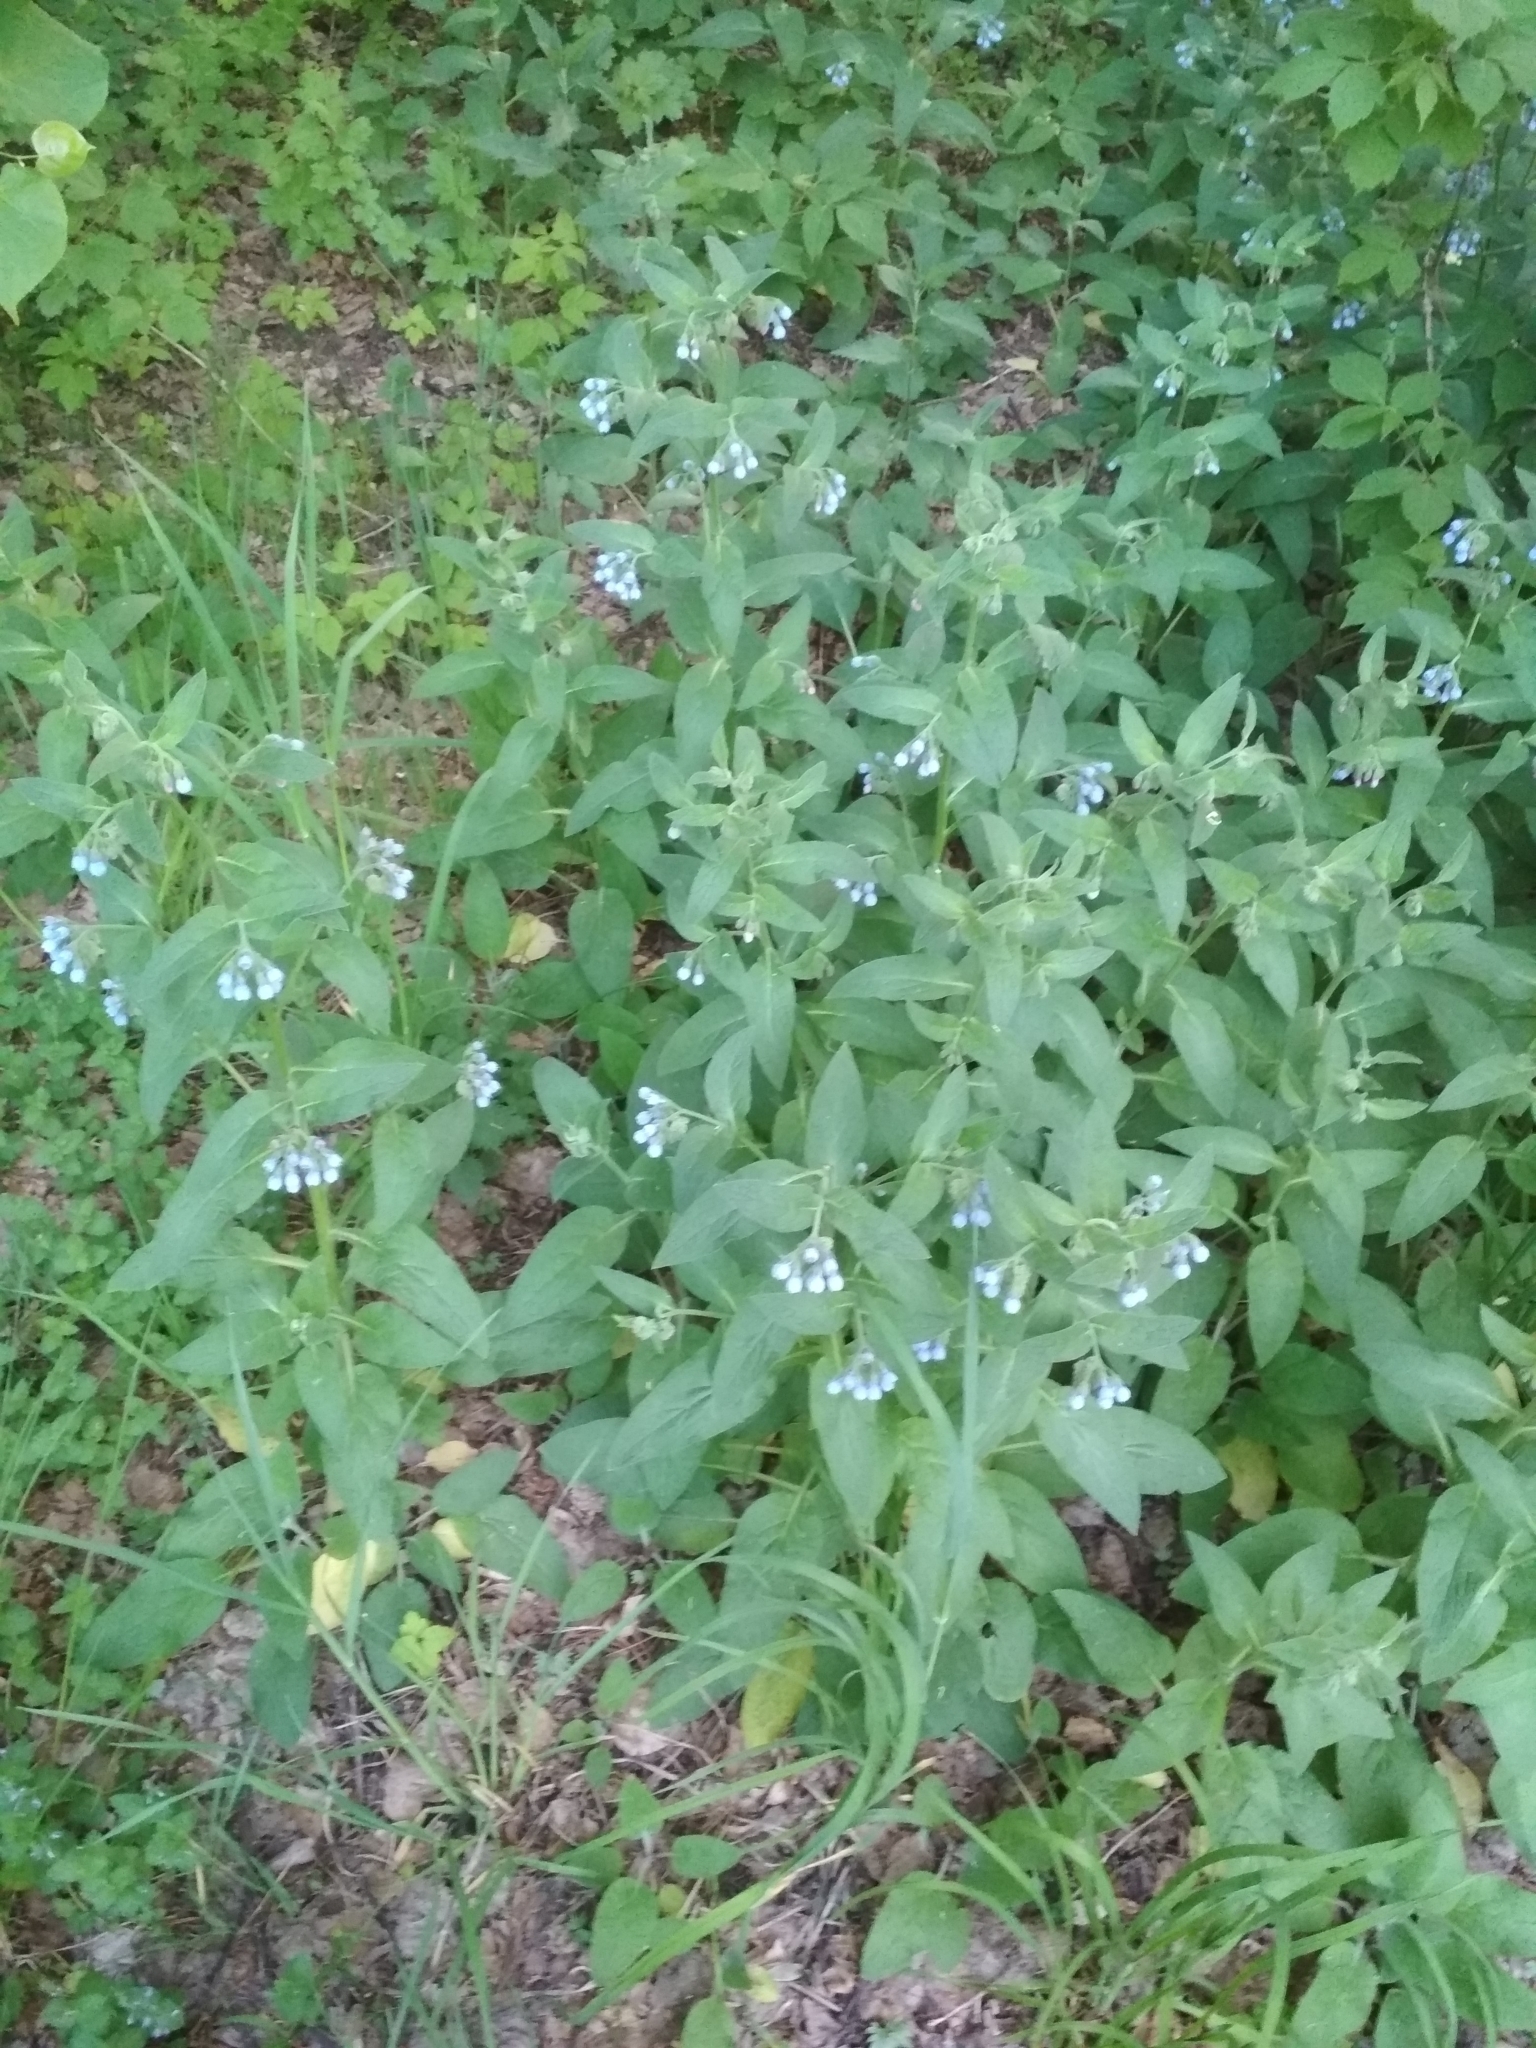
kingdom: Plantae
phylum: Tracheophyta
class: Magnoliopsida
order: Boraginales
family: Boraginaceae
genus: Symphytum
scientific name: Symphytum caucasicum
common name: Caucasian comfrey
